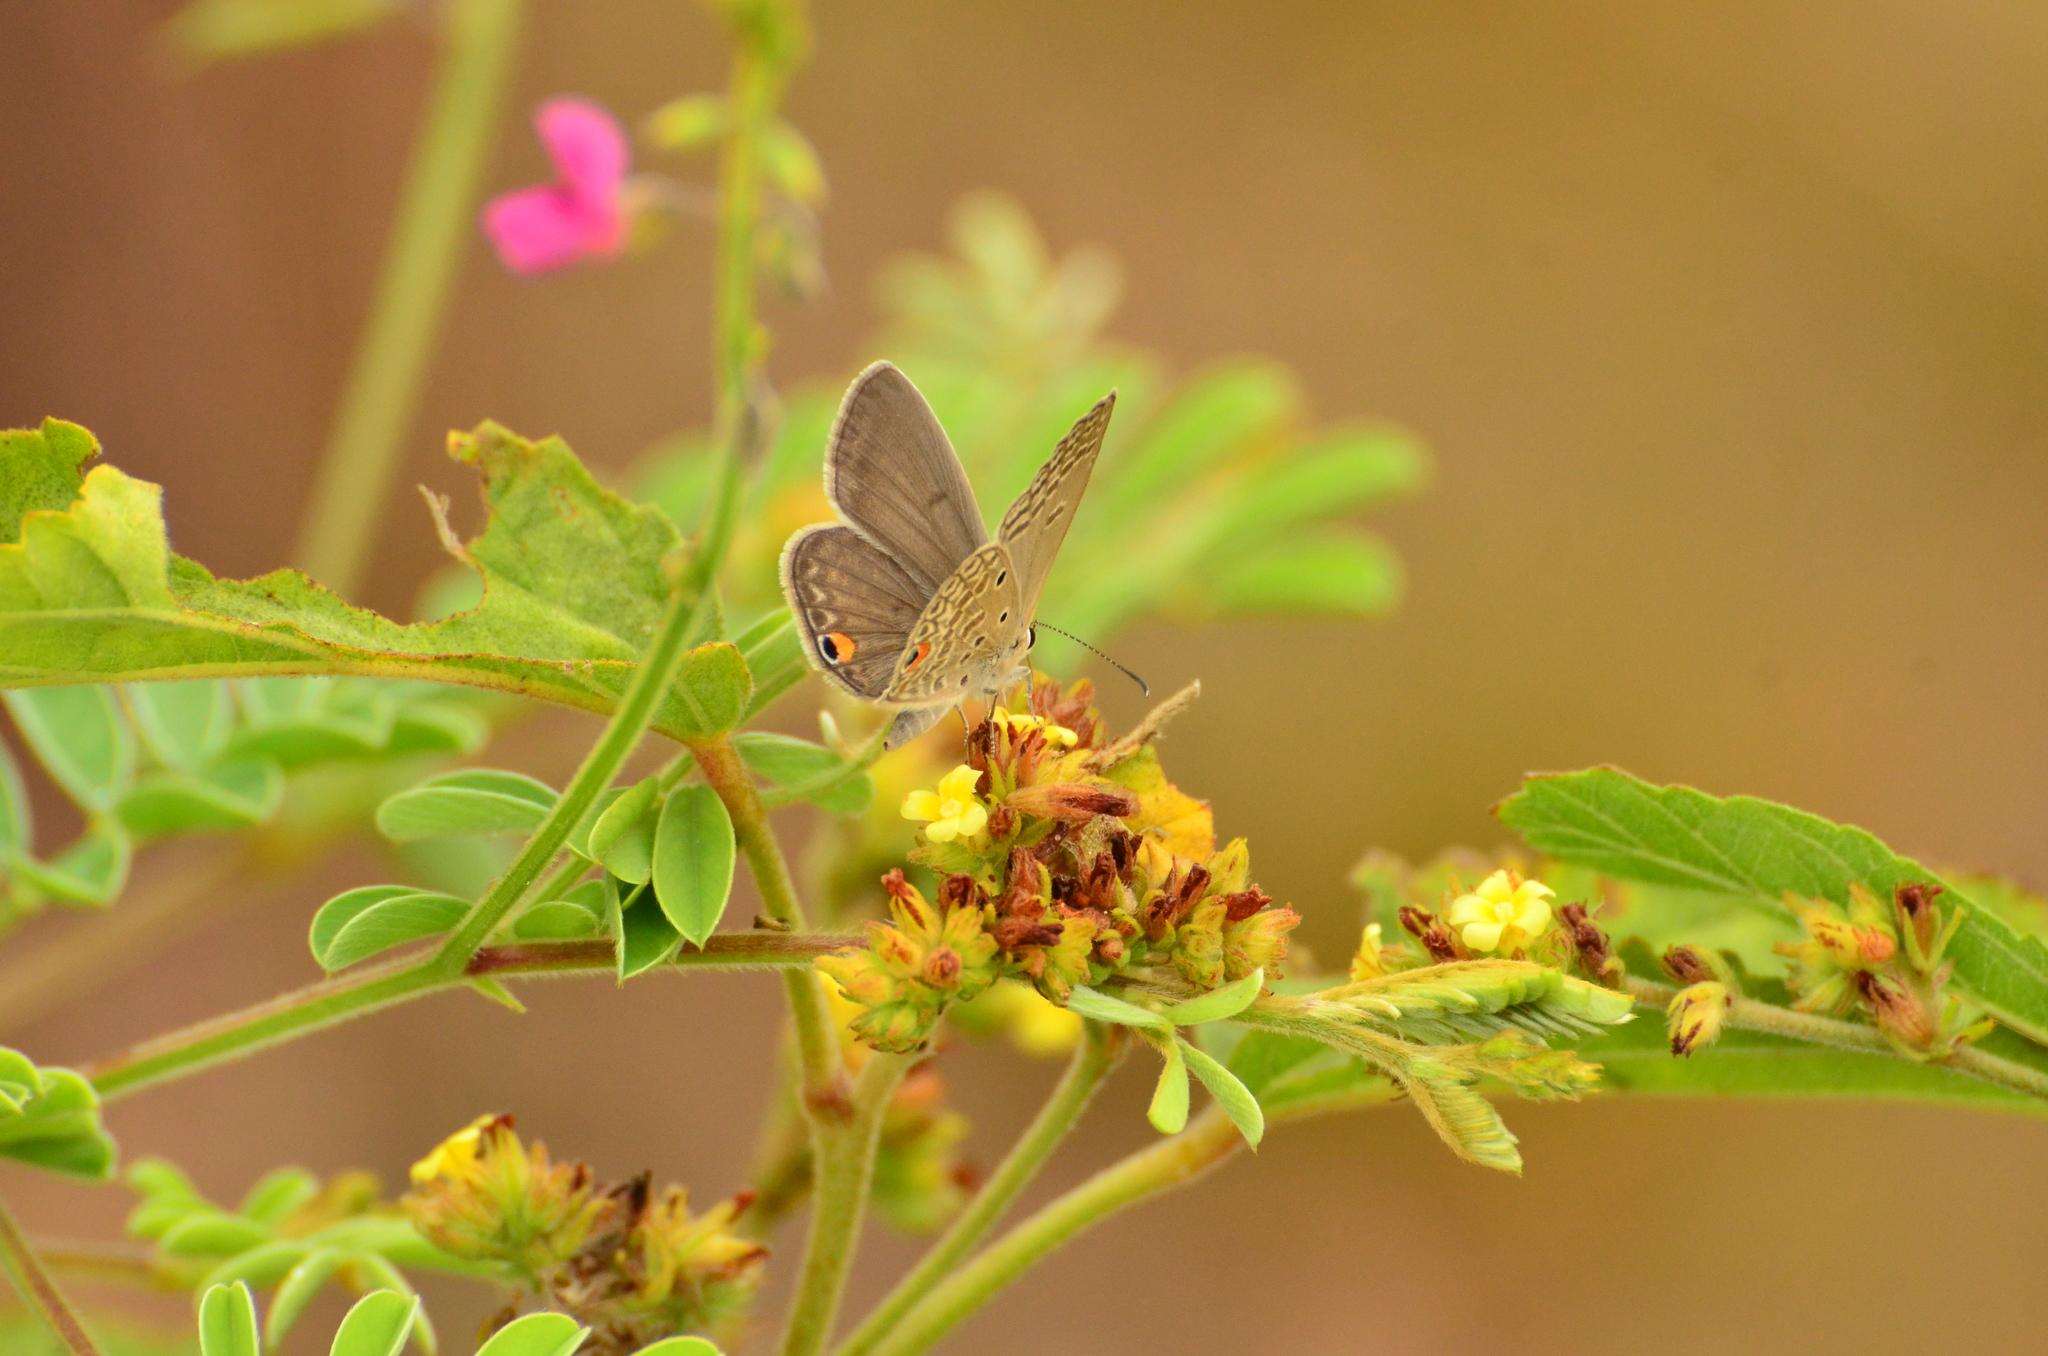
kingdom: Animalia
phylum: Arthropoda
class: Insecta
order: Lepidoptera
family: Lycaenidae
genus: Euchrysops
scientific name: Euchrysops malathana
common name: Common smoky blue
